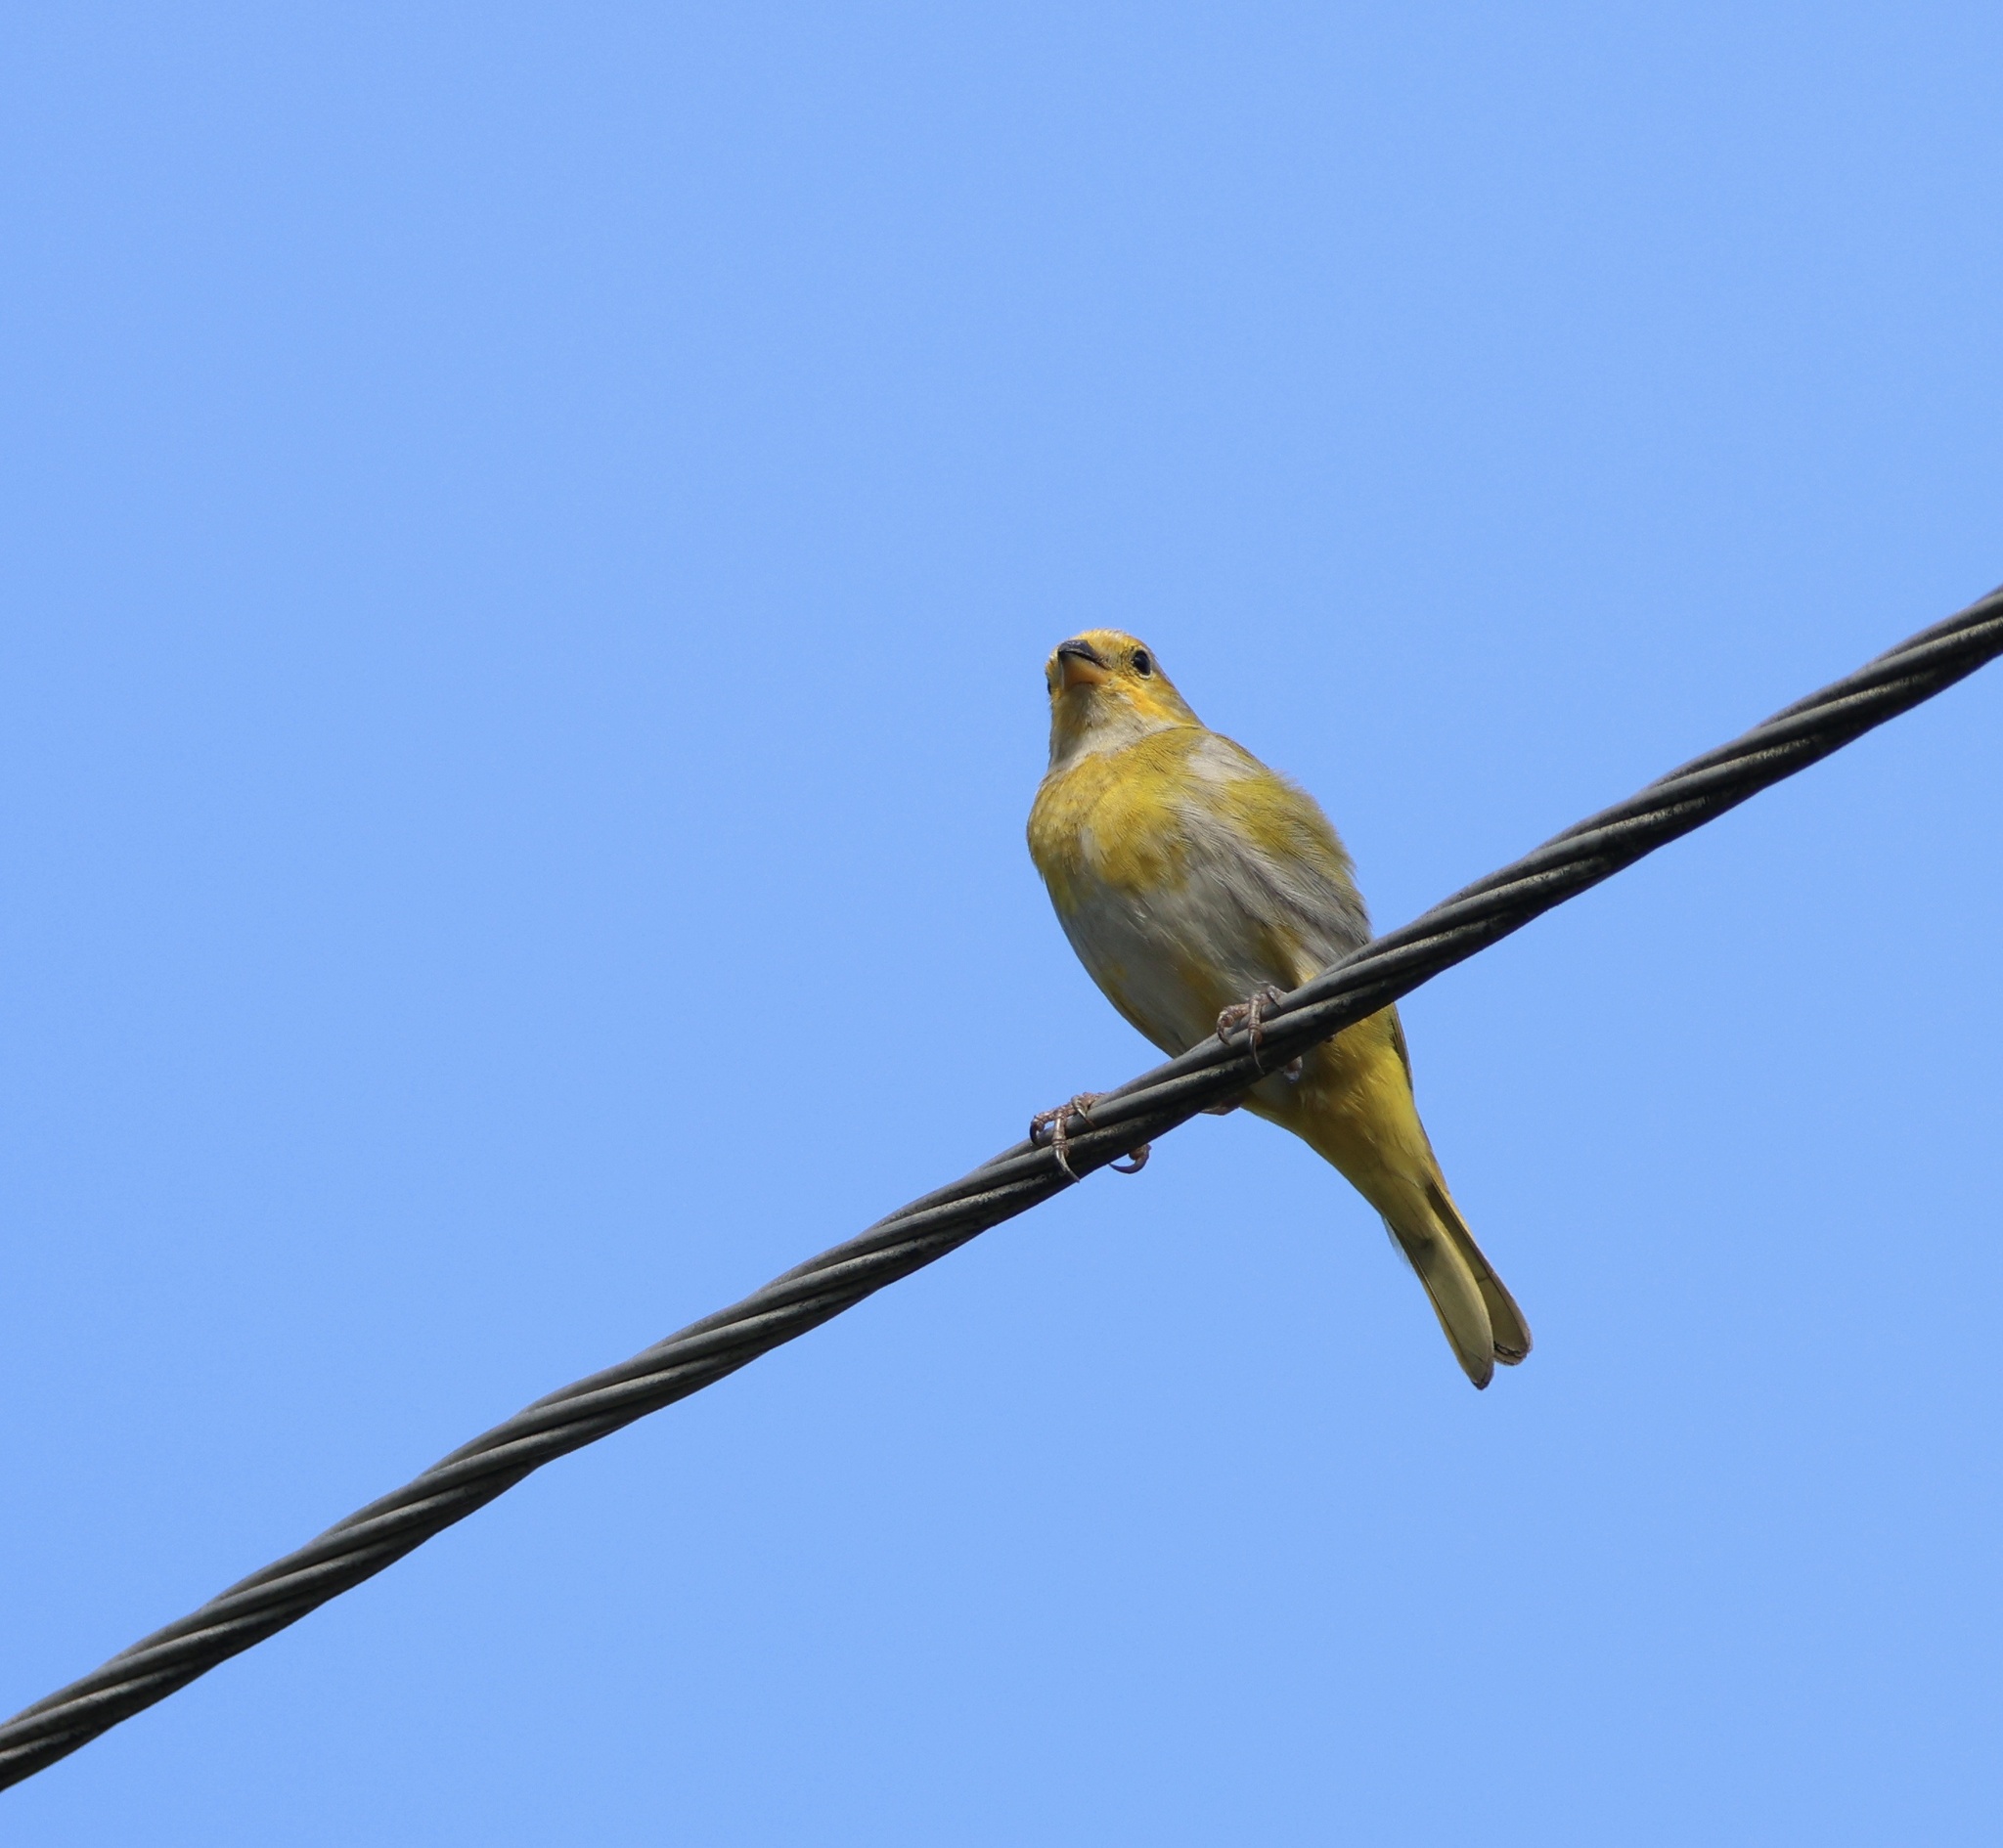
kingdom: Animalia
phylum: Chordata
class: Aves
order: Passeriformes
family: Thraupidae
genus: Sicalis
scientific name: Sicalis flaveola
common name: Saffron finch
